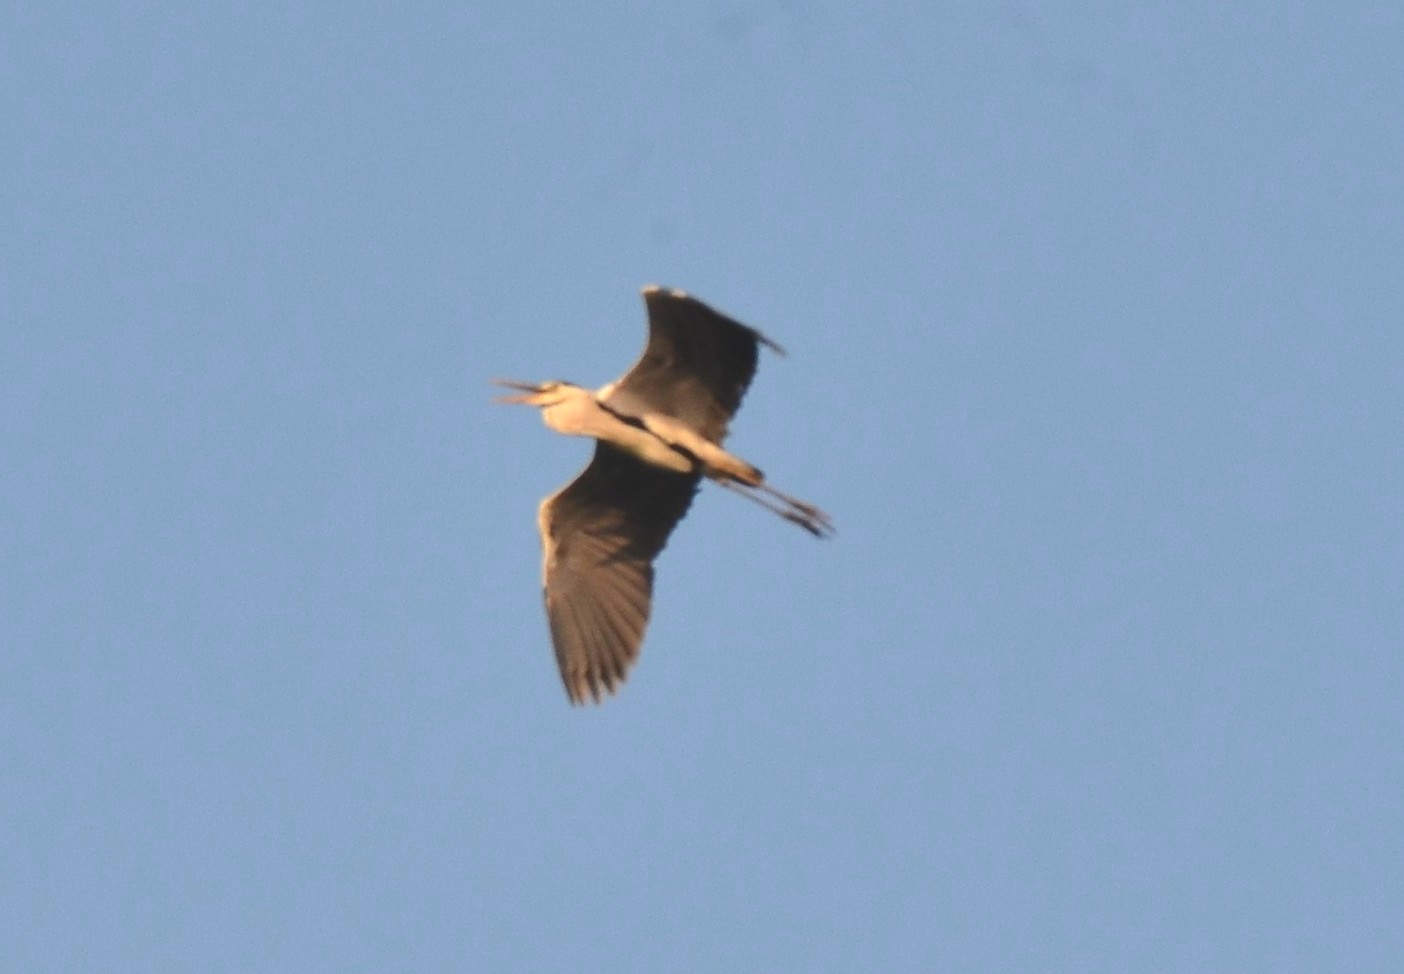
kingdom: Animalia
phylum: Chordata
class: Aves
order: Pelecaniformes
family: Ardeidae
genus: Ardea
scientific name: Ardea cinerea
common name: Grey heron
